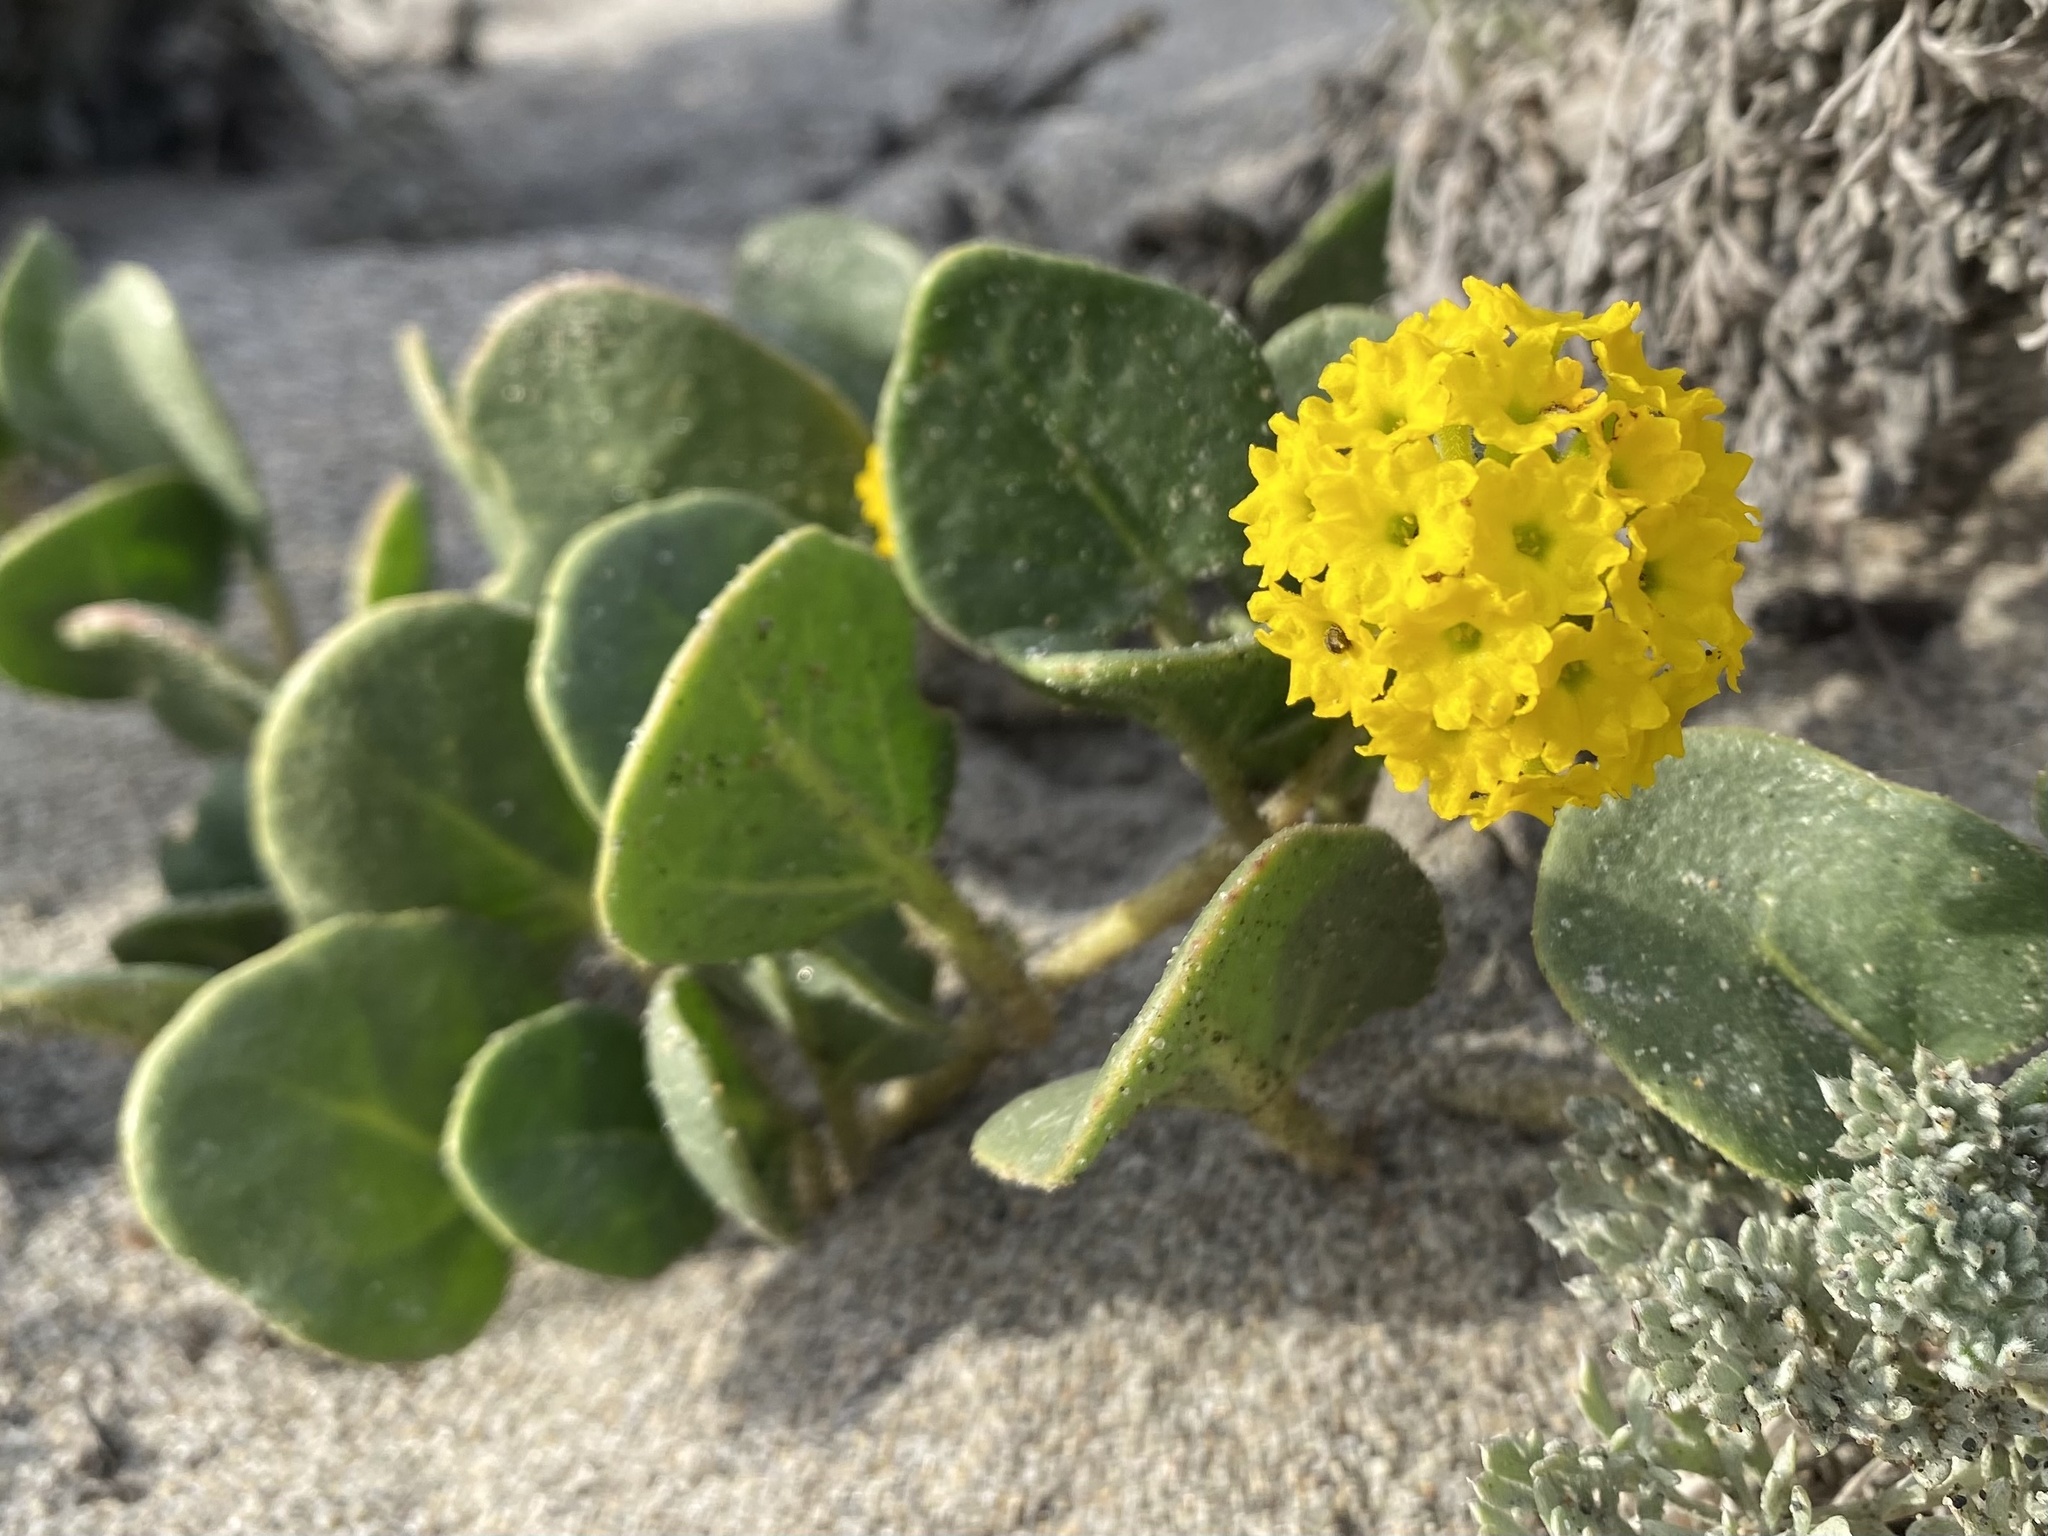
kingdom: Plantae
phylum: Tracheophyta
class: Magnoliopsida
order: Caryophyllales
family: Nyctaginaceae
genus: Abronia
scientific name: Abronia latifolia
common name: Yellow sand-verbena
